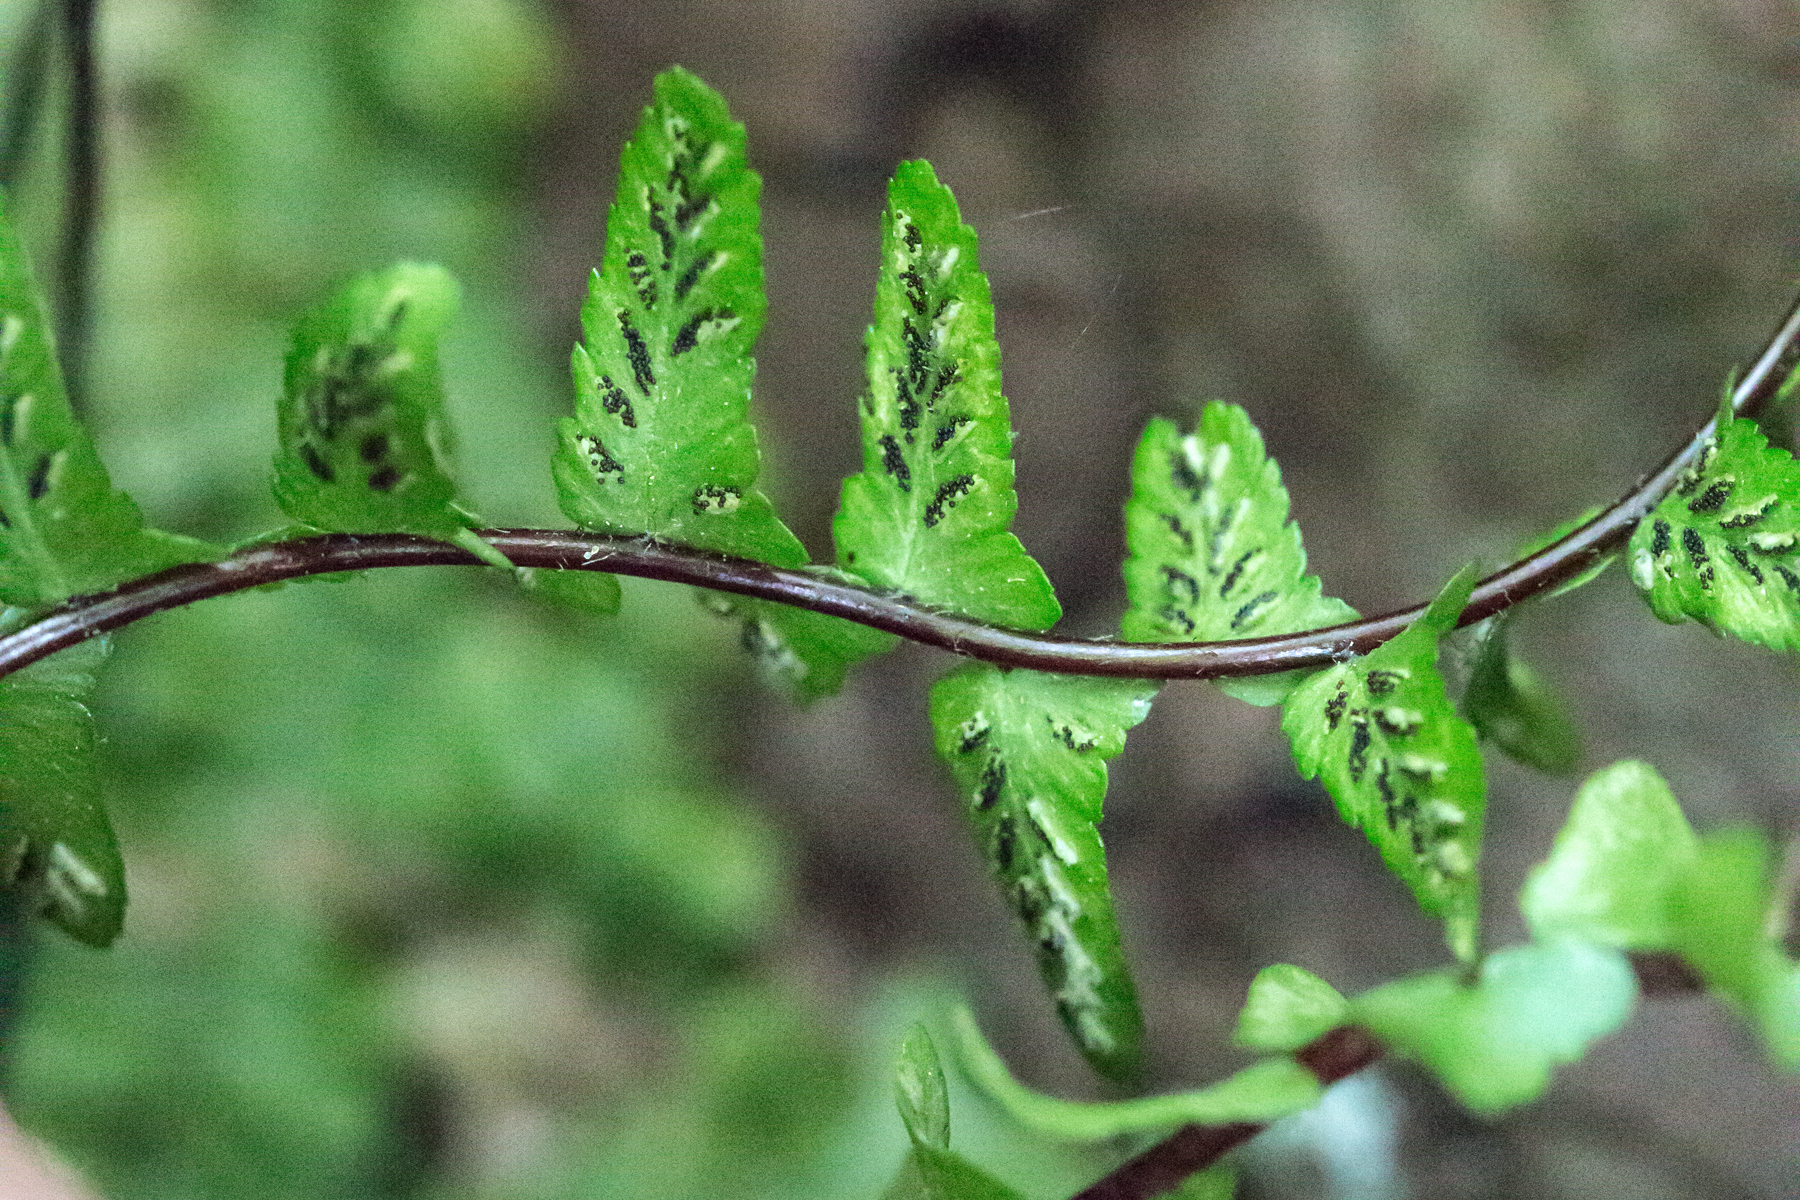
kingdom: Plantae
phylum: Tracheophyta
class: Polypodiopsida
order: Polypodiales
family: Aspleniaceae
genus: Asplenium
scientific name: Asplenium platyneuron
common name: Ebony spleenwort
